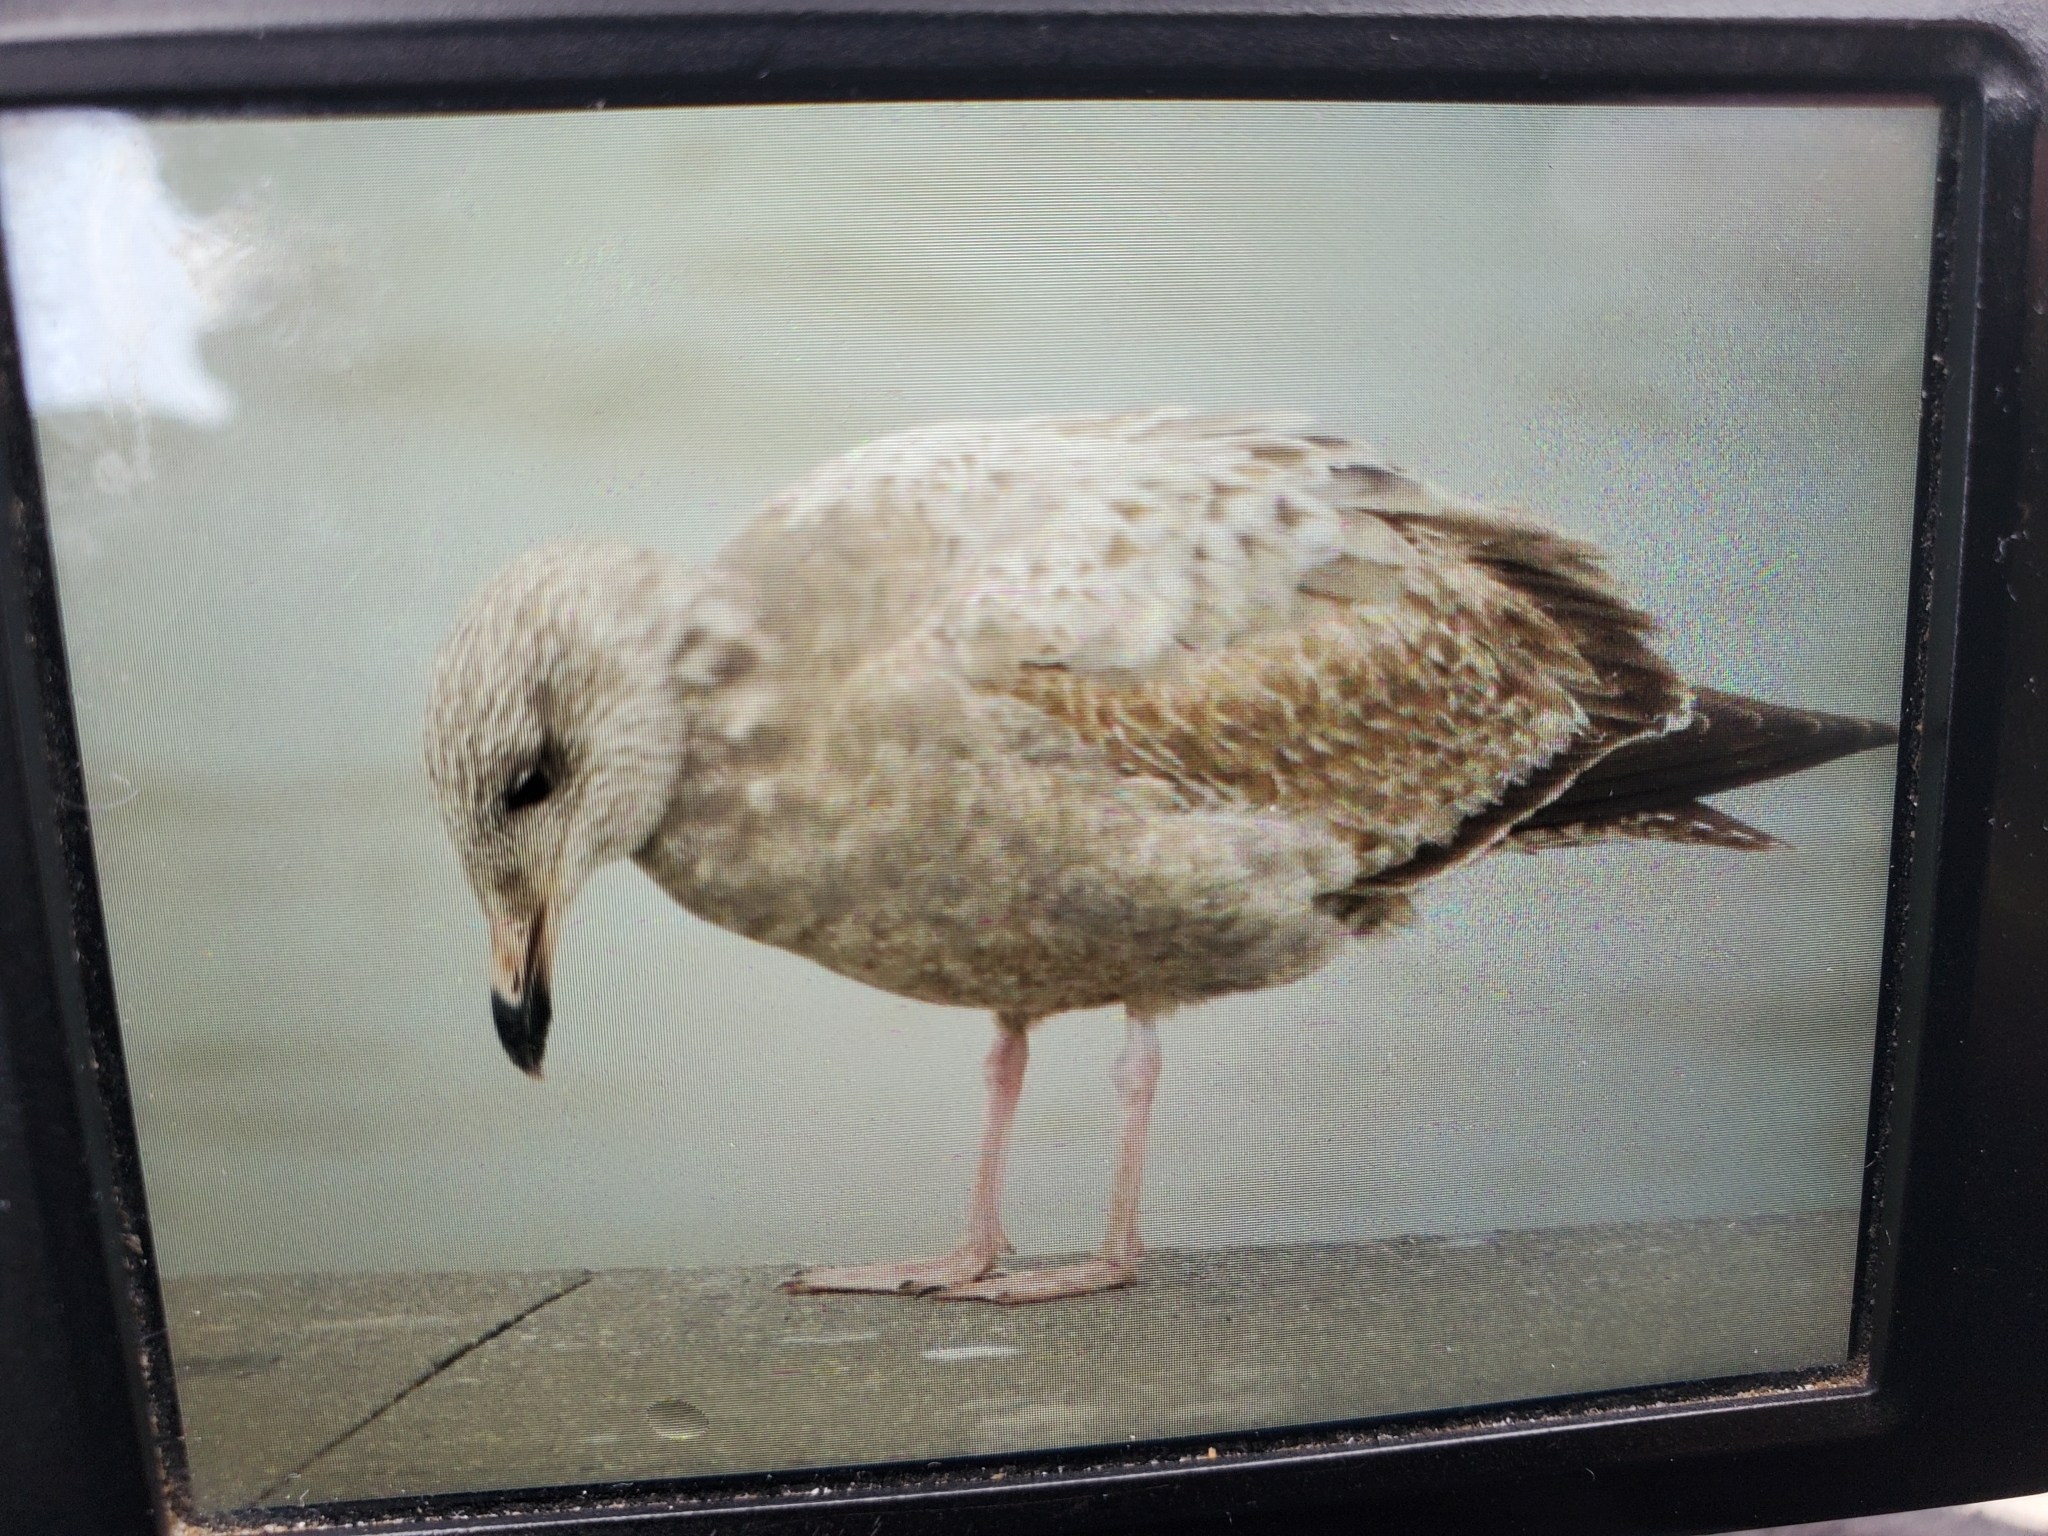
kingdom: Animalia
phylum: Chordata
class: Aves
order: Charadriiformes
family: Laridae
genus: Larus
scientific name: Larus argentatus
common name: Herring gull
